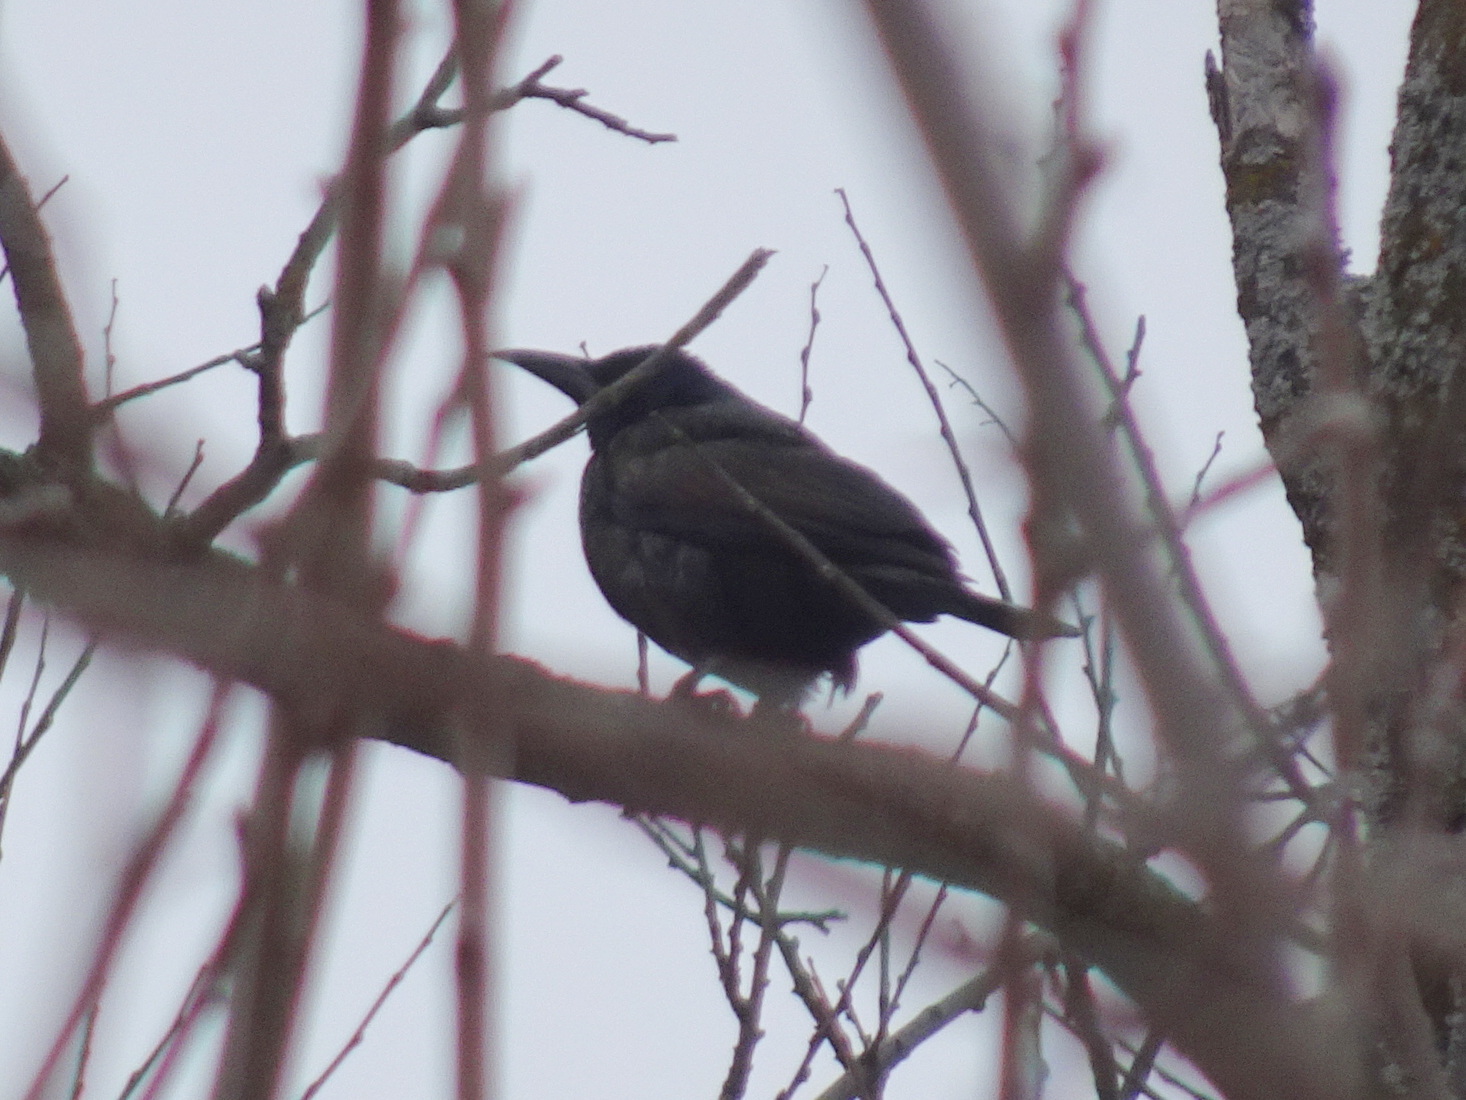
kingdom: Animalia
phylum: Chordata
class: Aves
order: Passeriformes
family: Icteridae
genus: Quiscalus
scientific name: Quiscalus quiscula
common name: Common grackle
